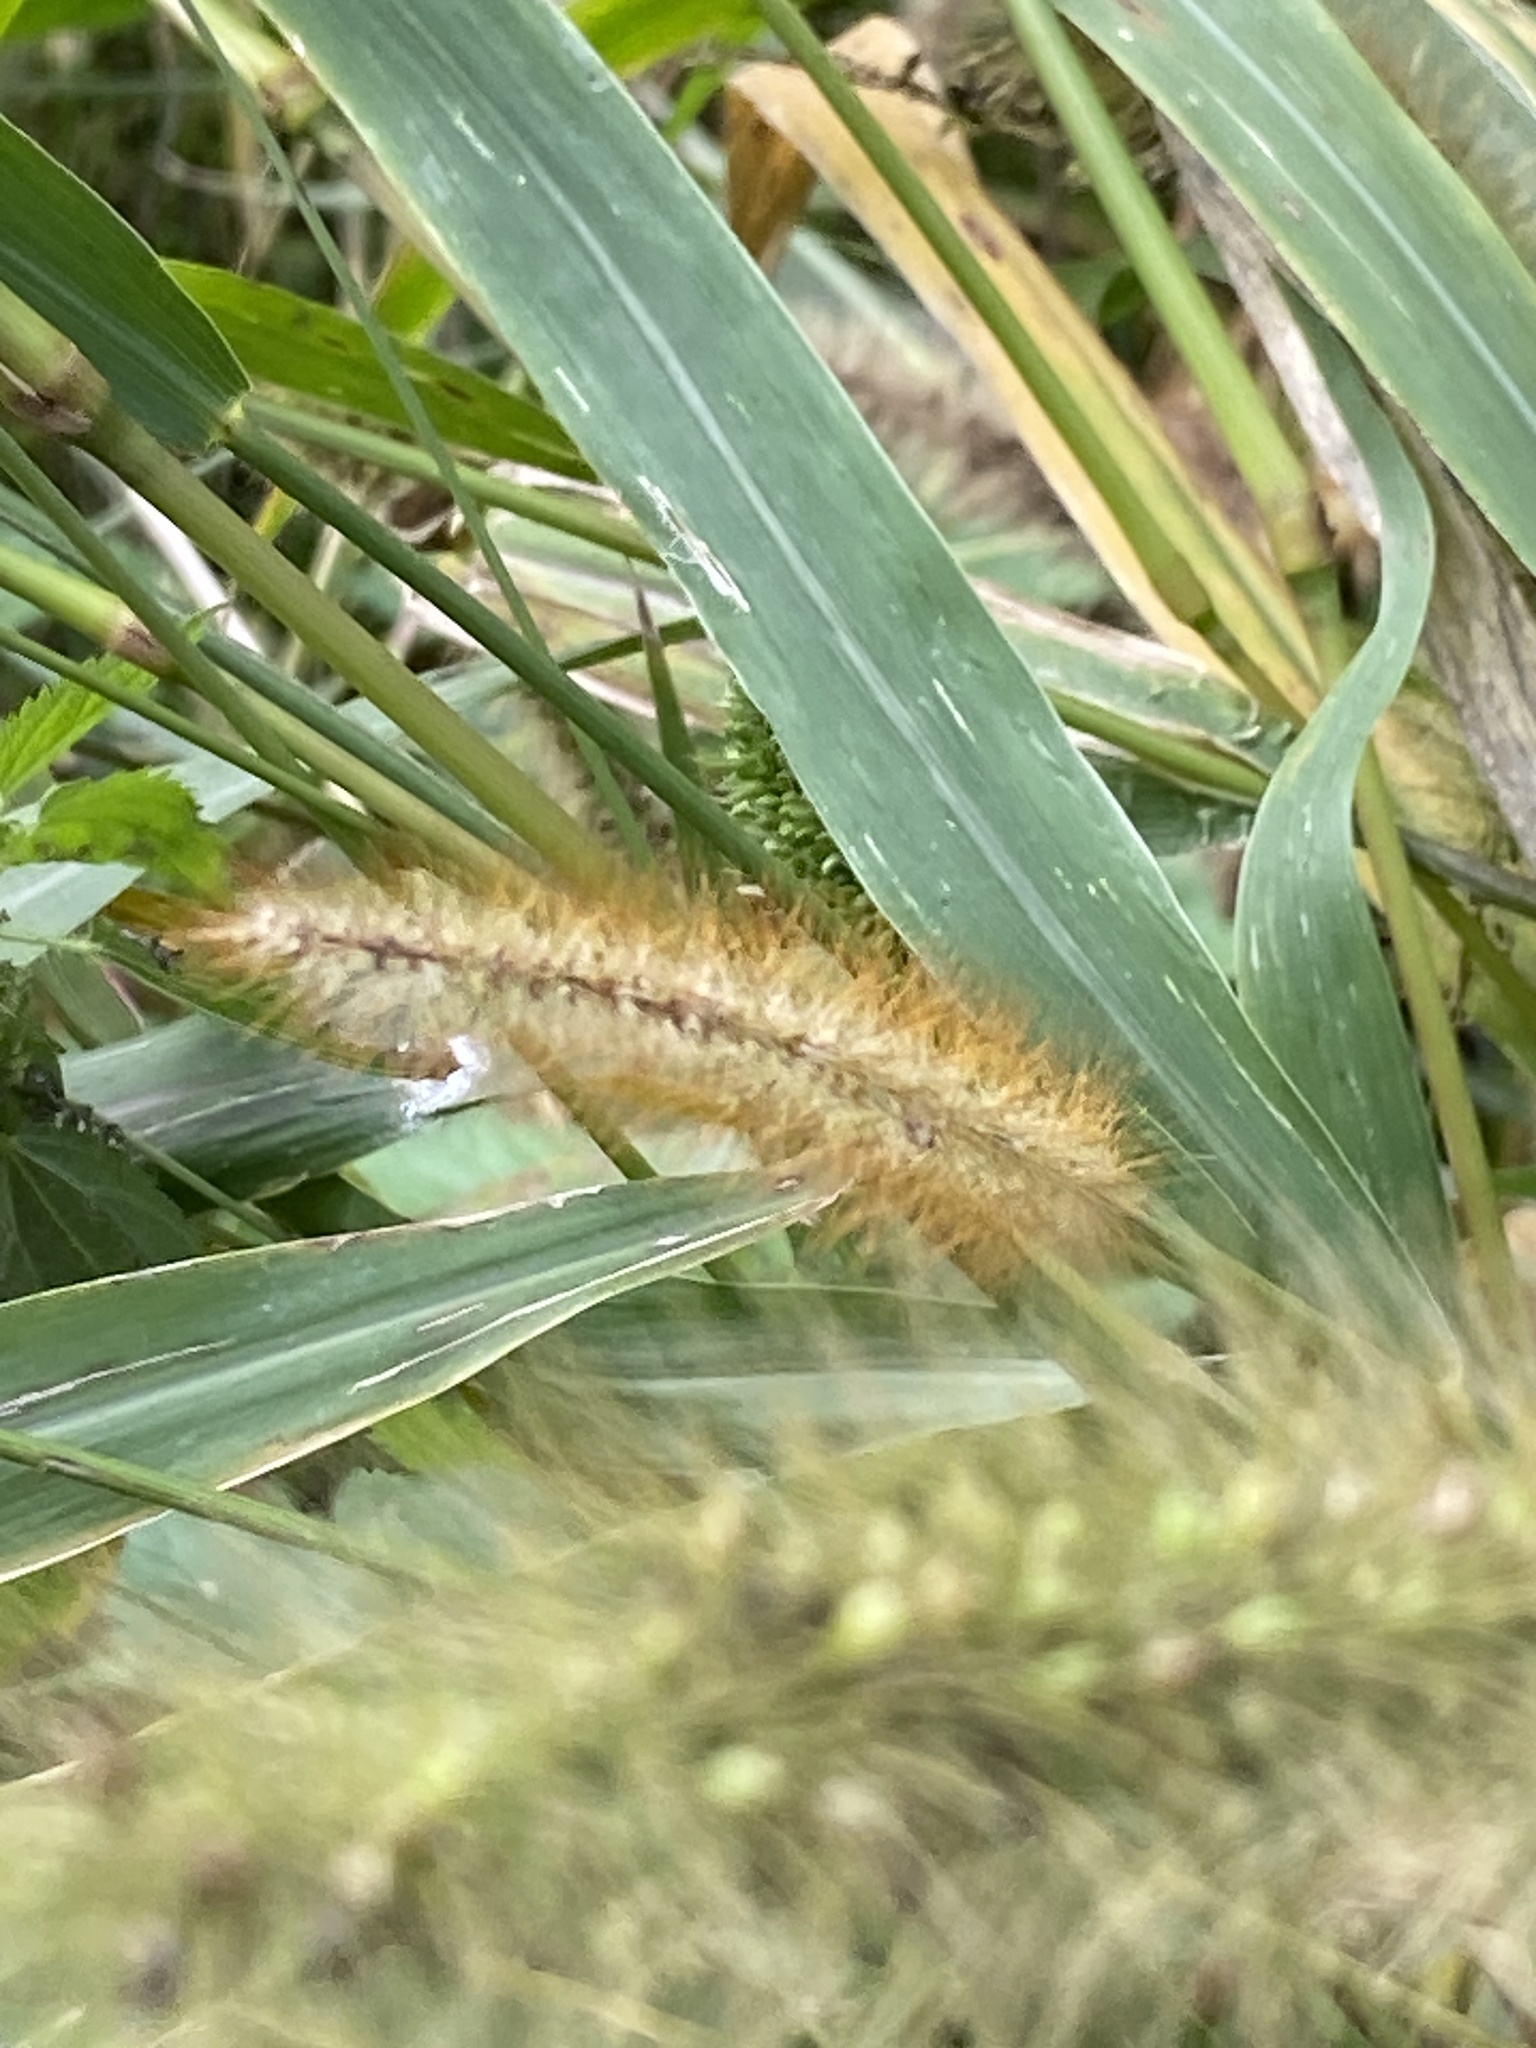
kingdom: Plantae
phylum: Tracheophyta
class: Liliopsida
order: Poales
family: Poaceae
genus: Setaria
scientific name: Setaria pumila
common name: Yellow bristle-grass
